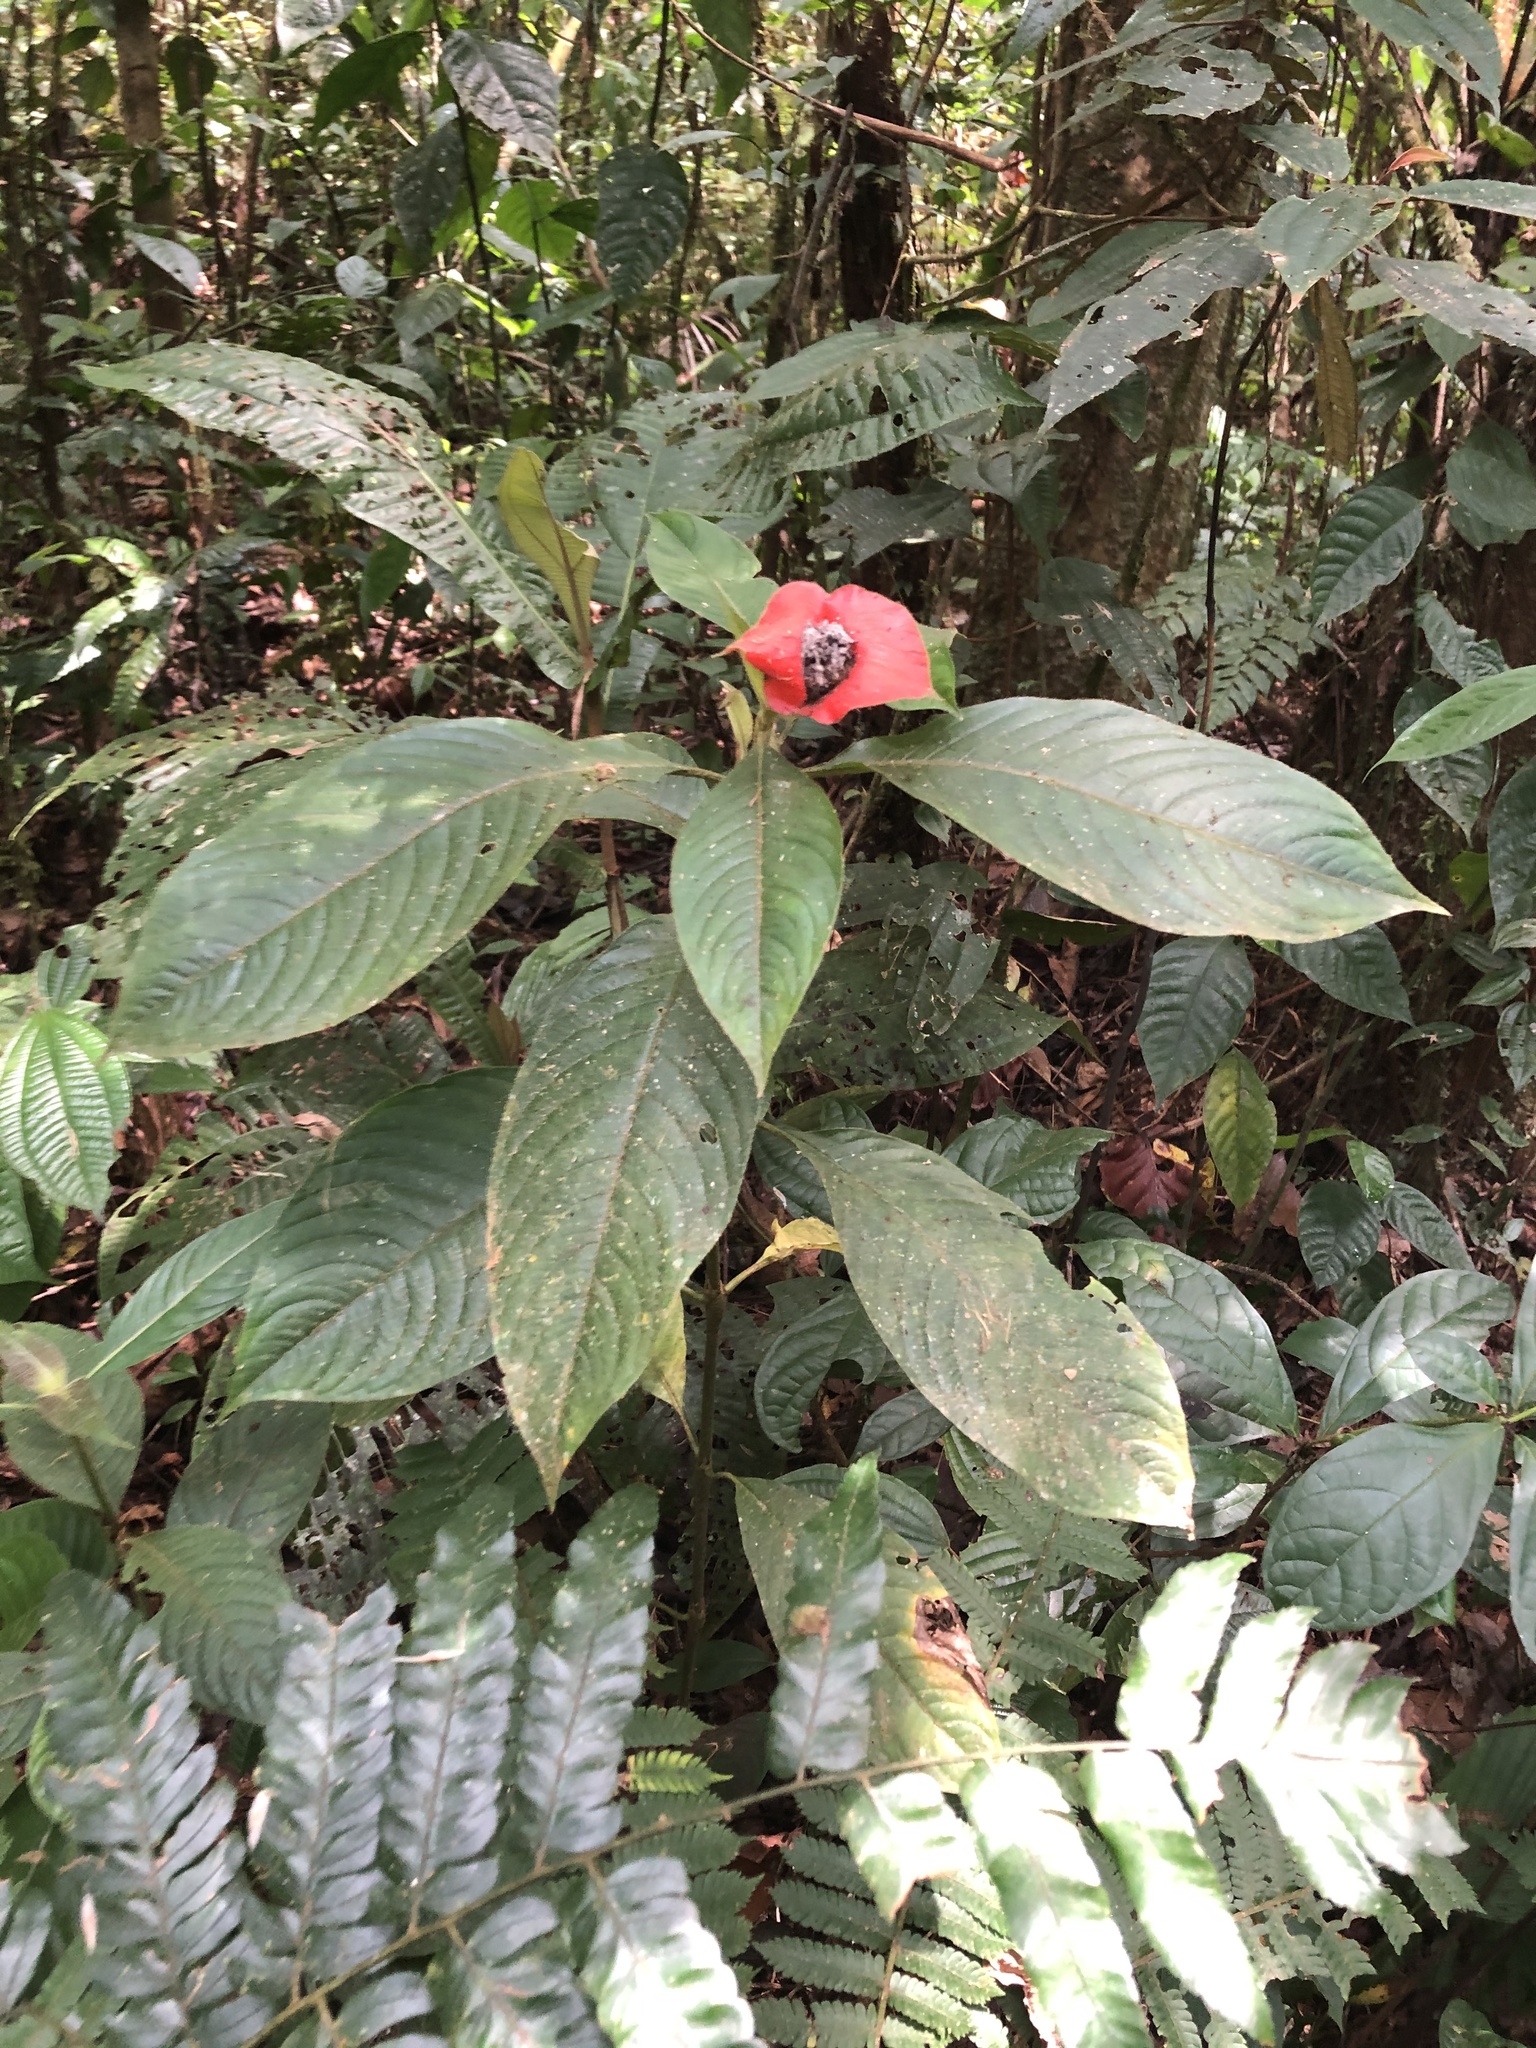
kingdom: Plantae
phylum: Tracheophyta
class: Magnoliopsida
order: Gentianales
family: Rubiaceae
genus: Palicourea
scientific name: Palicourea tomentosa
